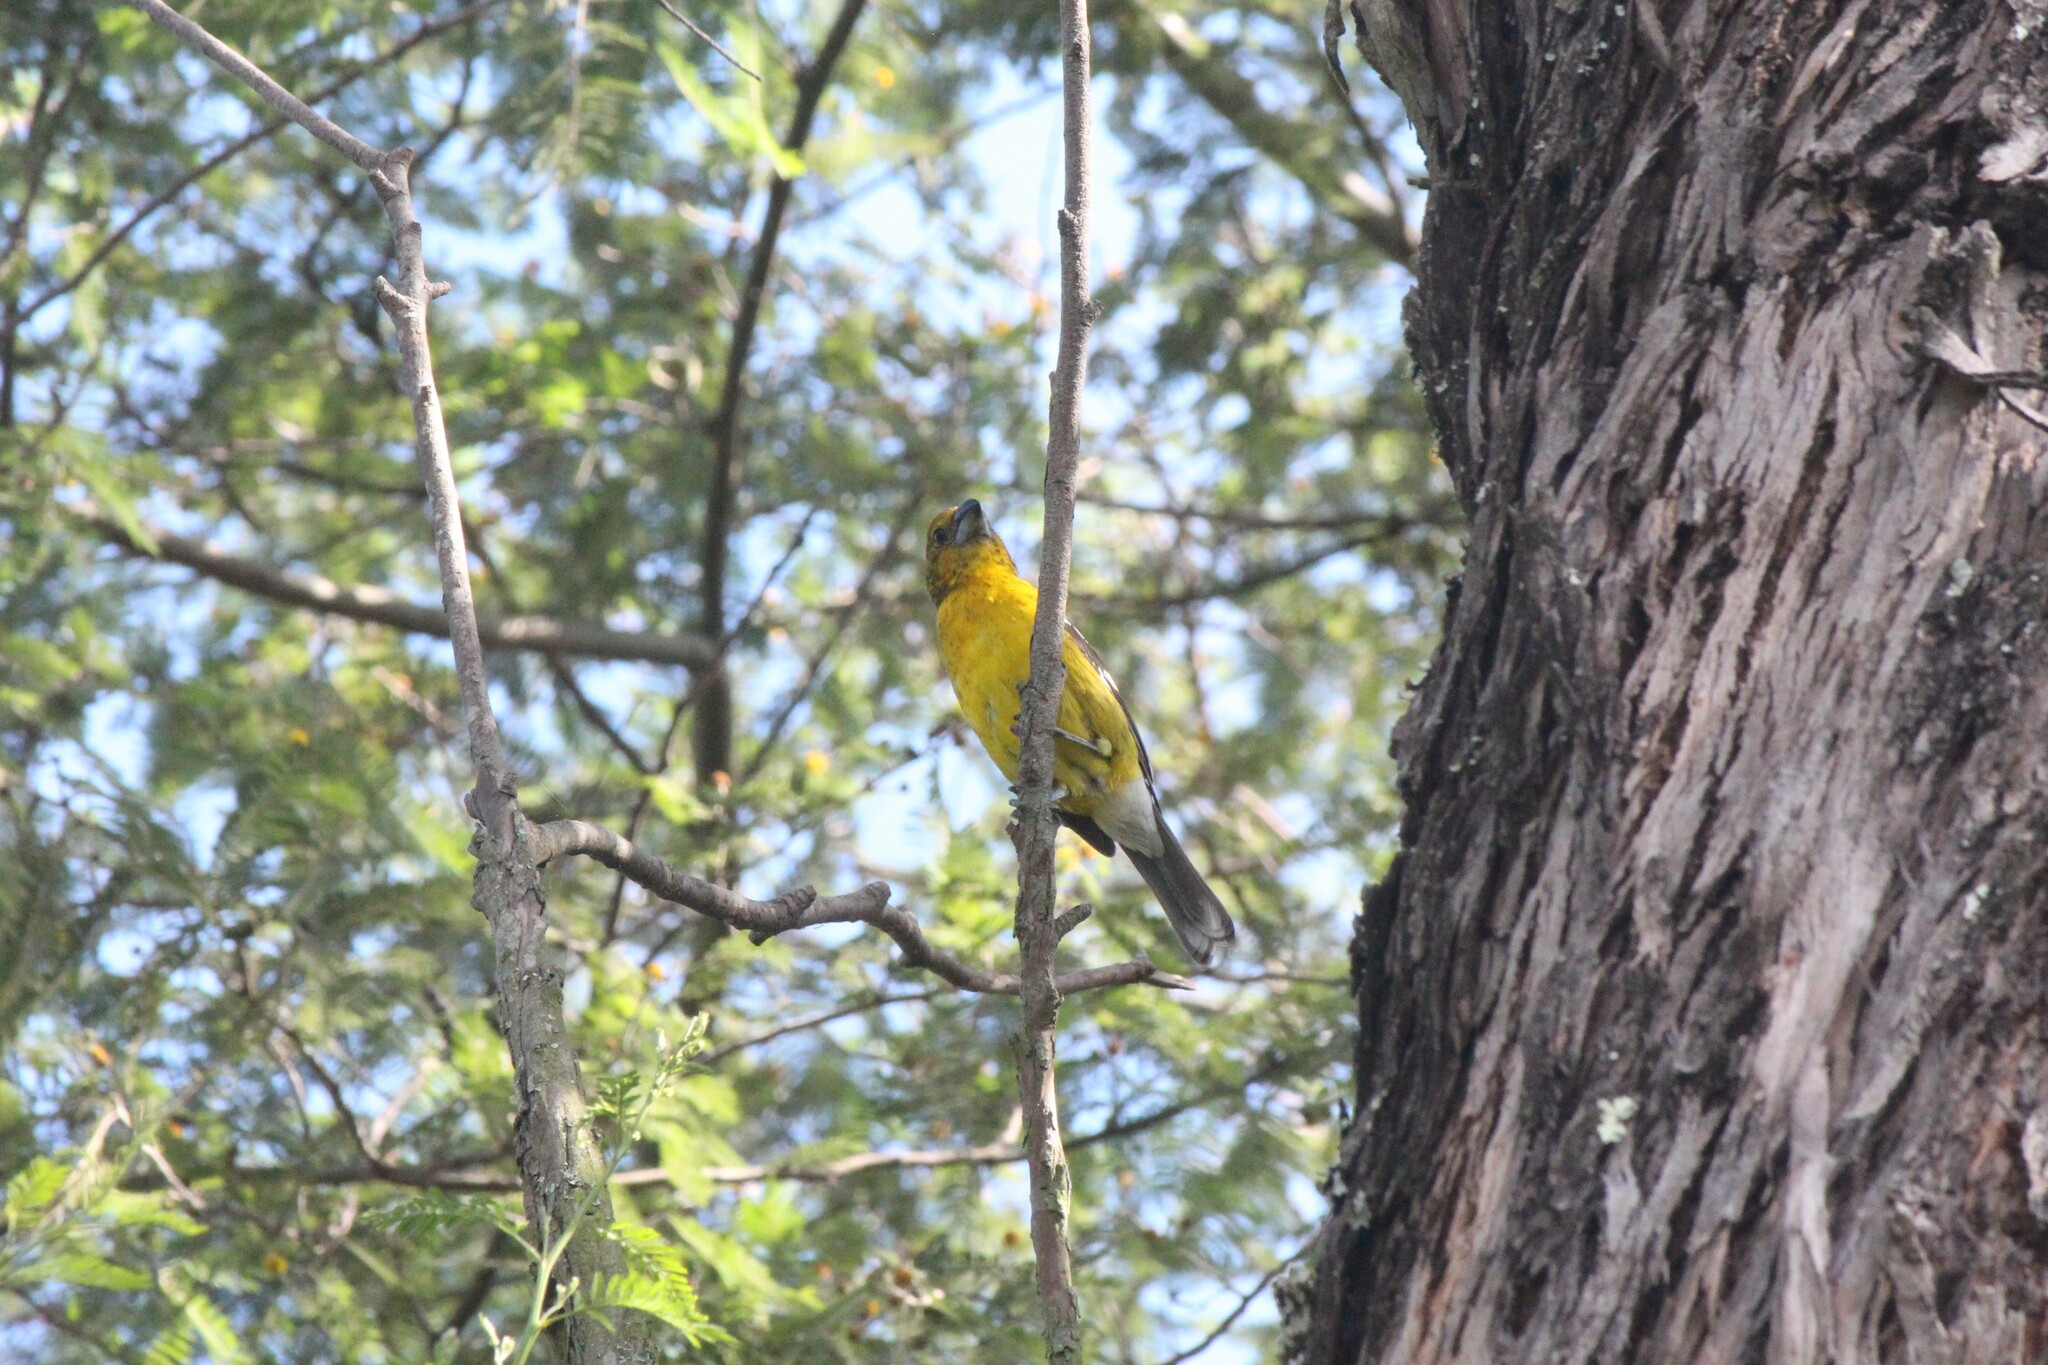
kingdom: Animalia
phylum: Chordata
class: Aves
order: Passeriformes
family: Cardinalidae
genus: Pheucticus
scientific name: Pheucticus chrysogaster
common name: Golden grosbeak
